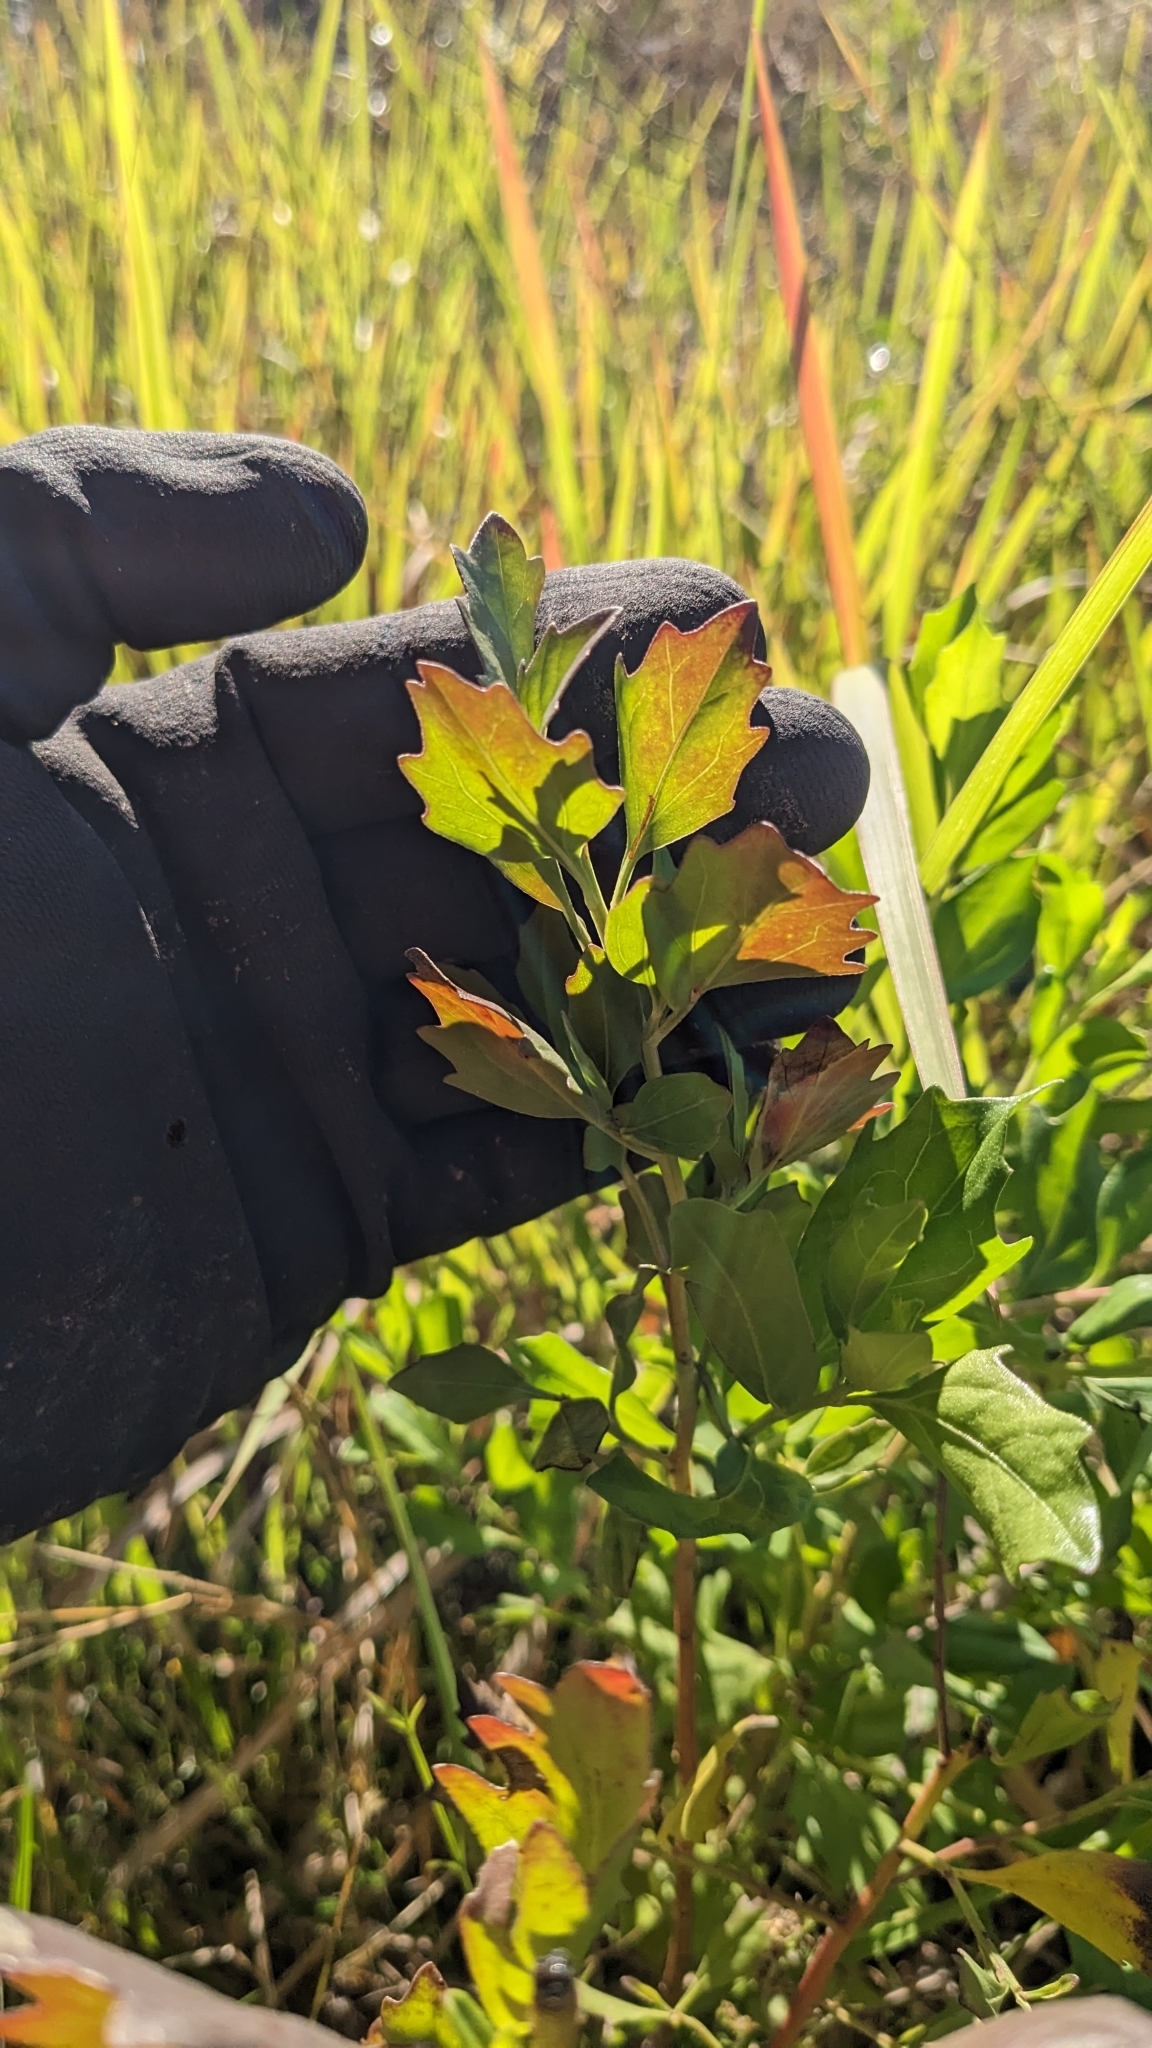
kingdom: Plantae
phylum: Tracheophyta
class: Magnoliopsida
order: Asterales
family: Asteraceae
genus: Baccharis
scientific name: Baccharis halimifolia
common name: Eastern baccharis
